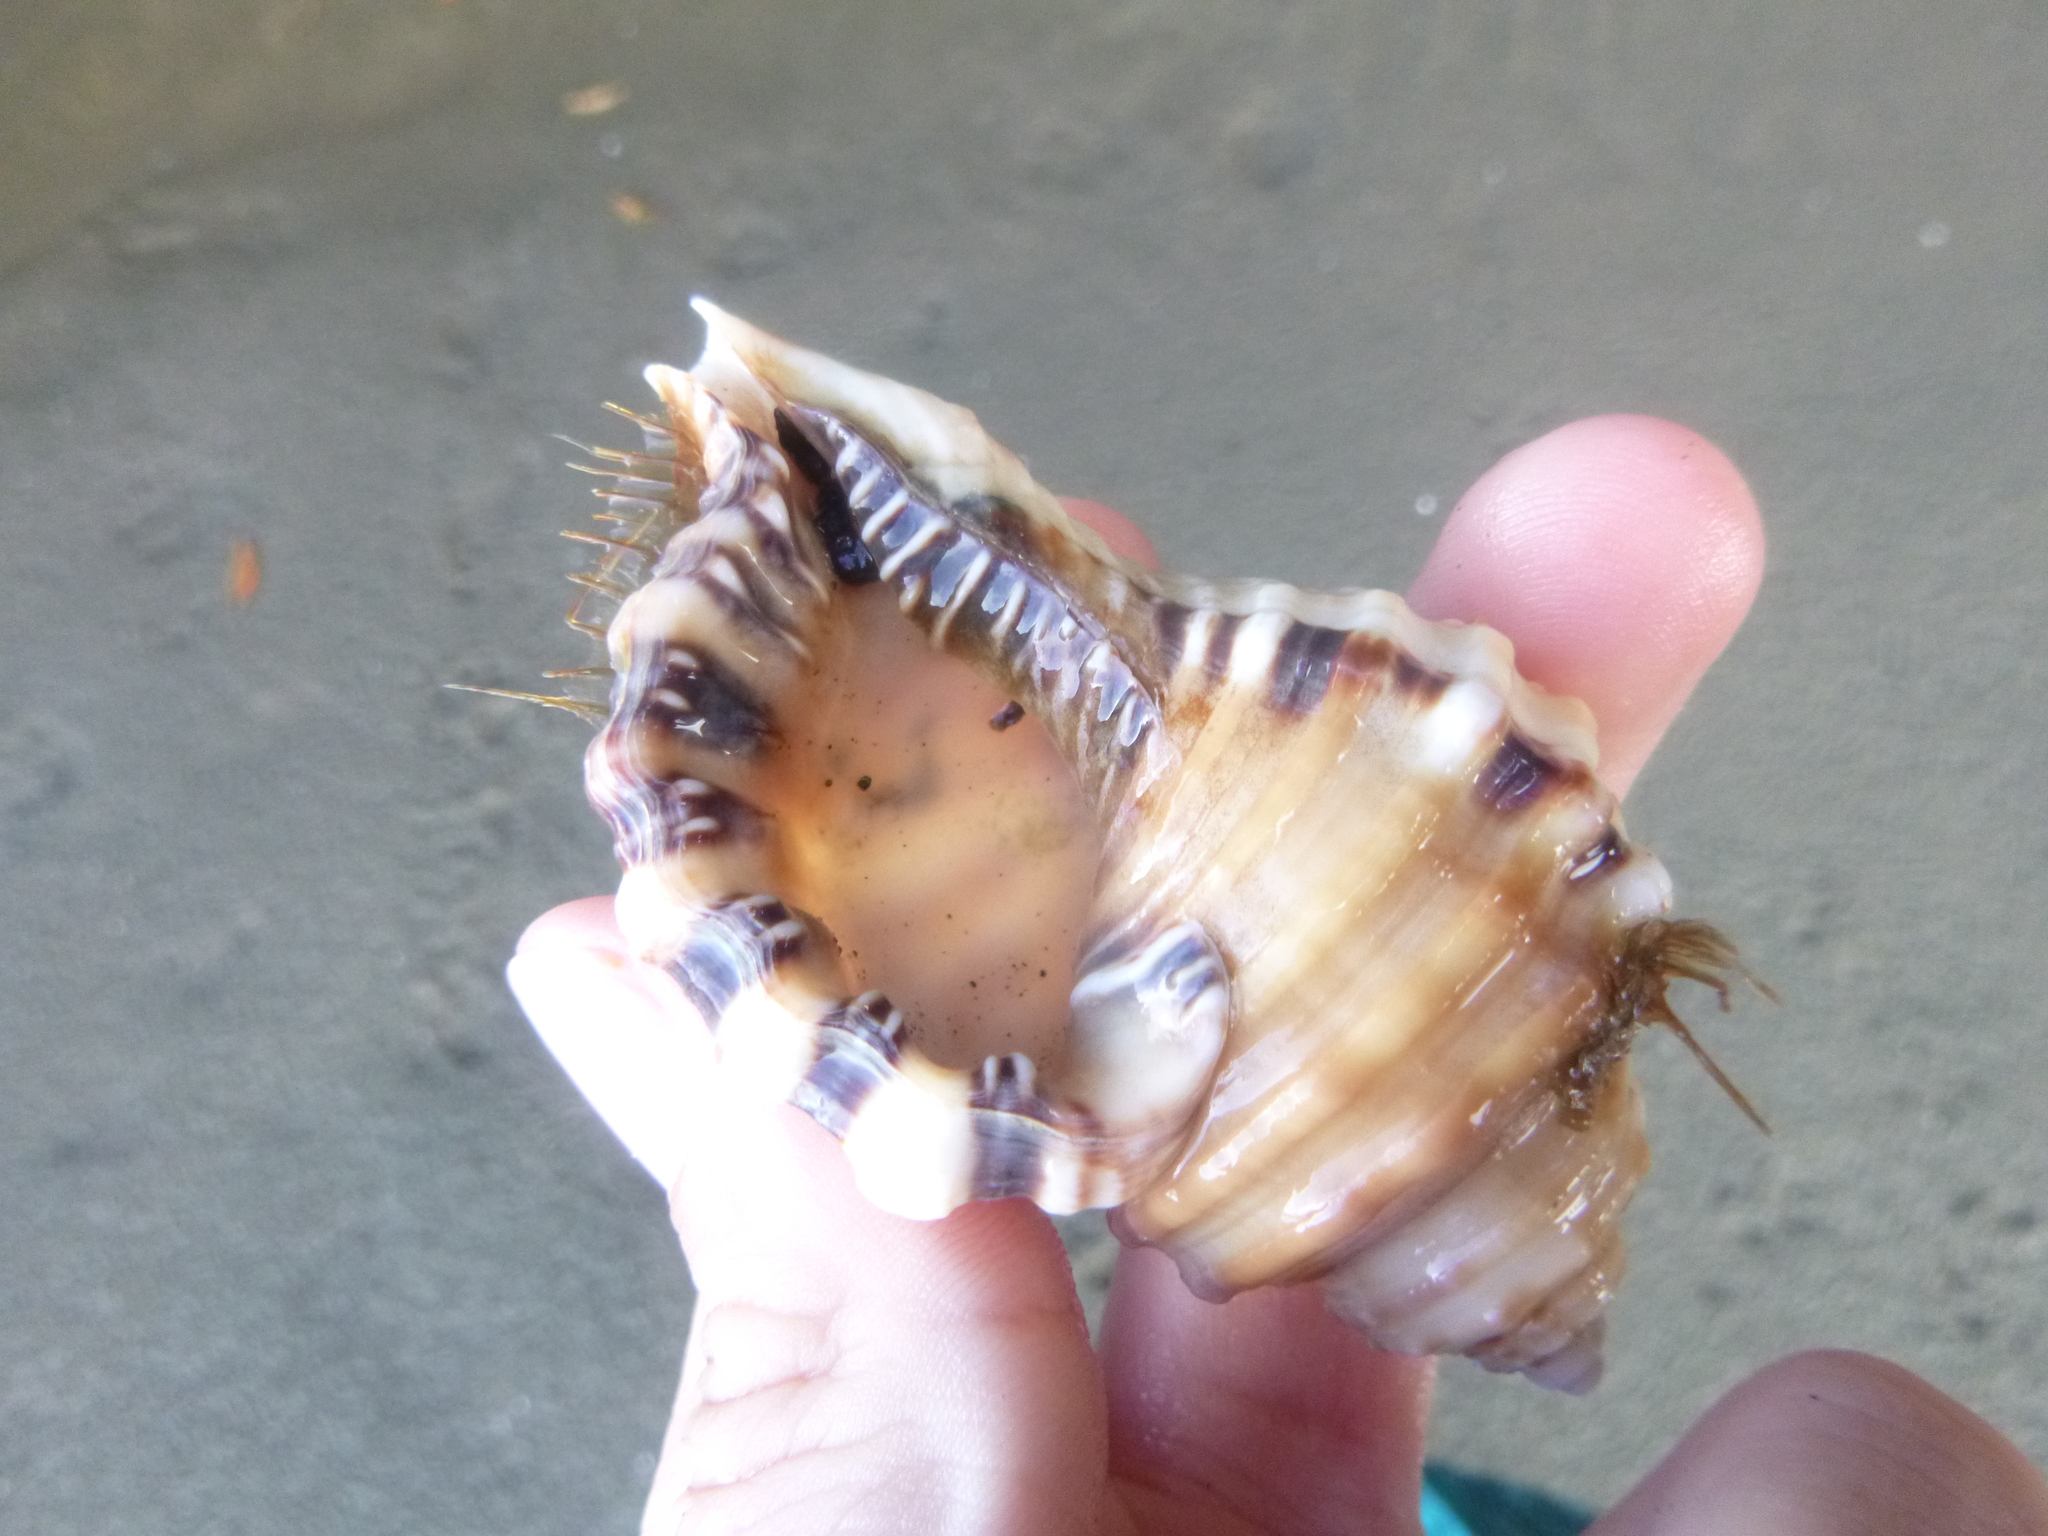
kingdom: Animalia
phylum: Mollusca
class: Gastropoda
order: Littorinimorpha
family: Cymatiidae
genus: Monoplex
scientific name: Monoplex parthenopeus
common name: Giant triton
